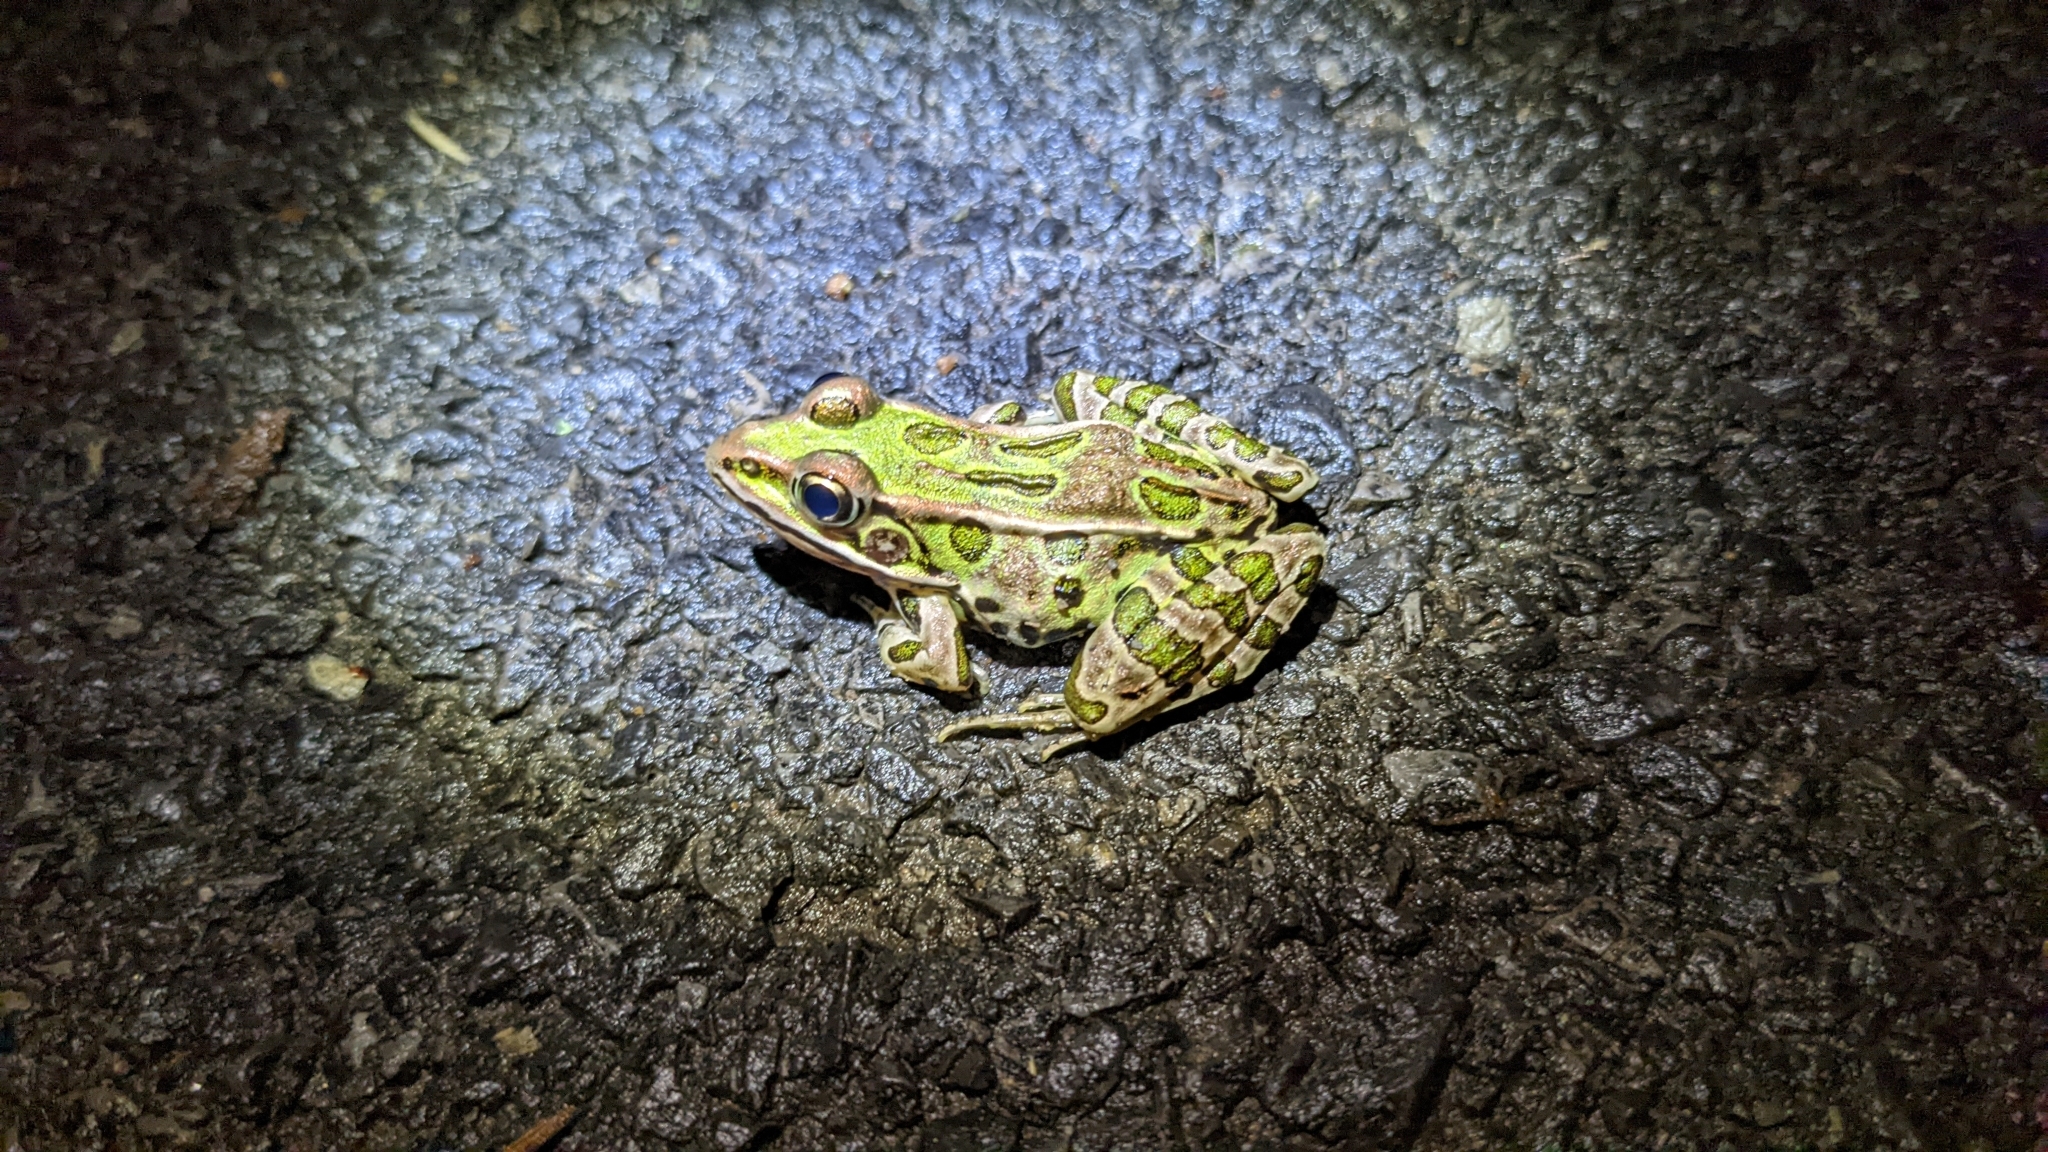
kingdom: Animalia
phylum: Chordata
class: Amphibia
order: Anura
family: Ranidae
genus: Lithobates
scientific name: Lithobates pipiens
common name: Northern leopard frog
